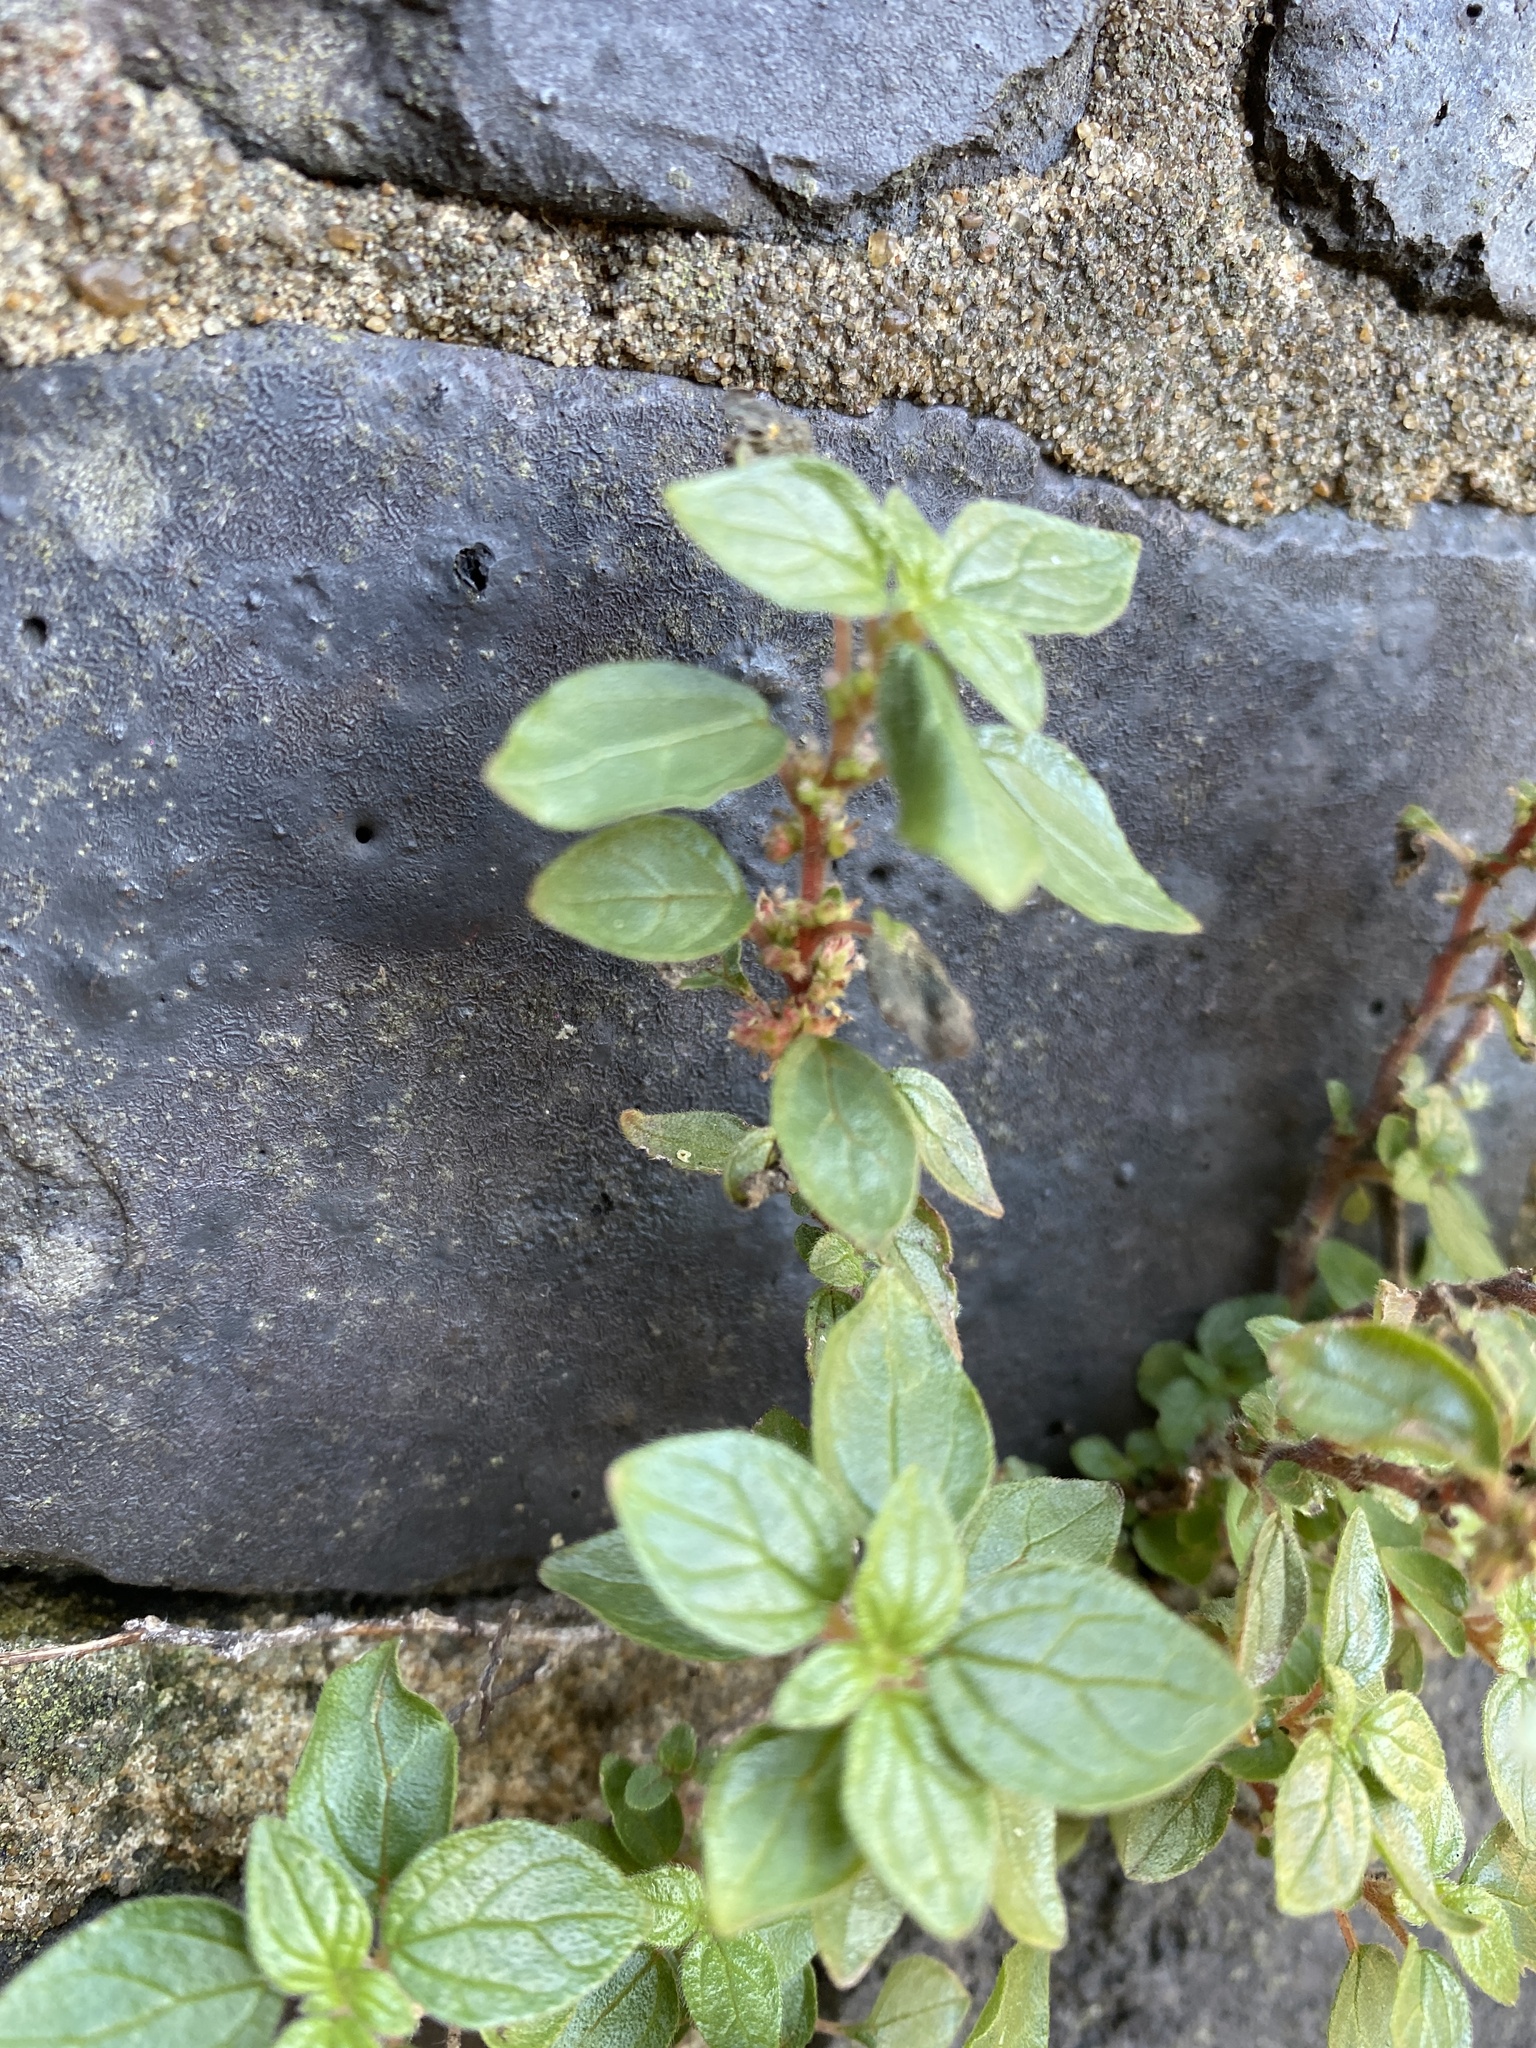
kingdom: Plantae
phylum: Tracheophyta
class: Magnoliopsida
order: Rosales
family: Urticaceae
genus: Parietaria
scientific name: Parietaria judaica
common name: Pellitory-of-the-wall
